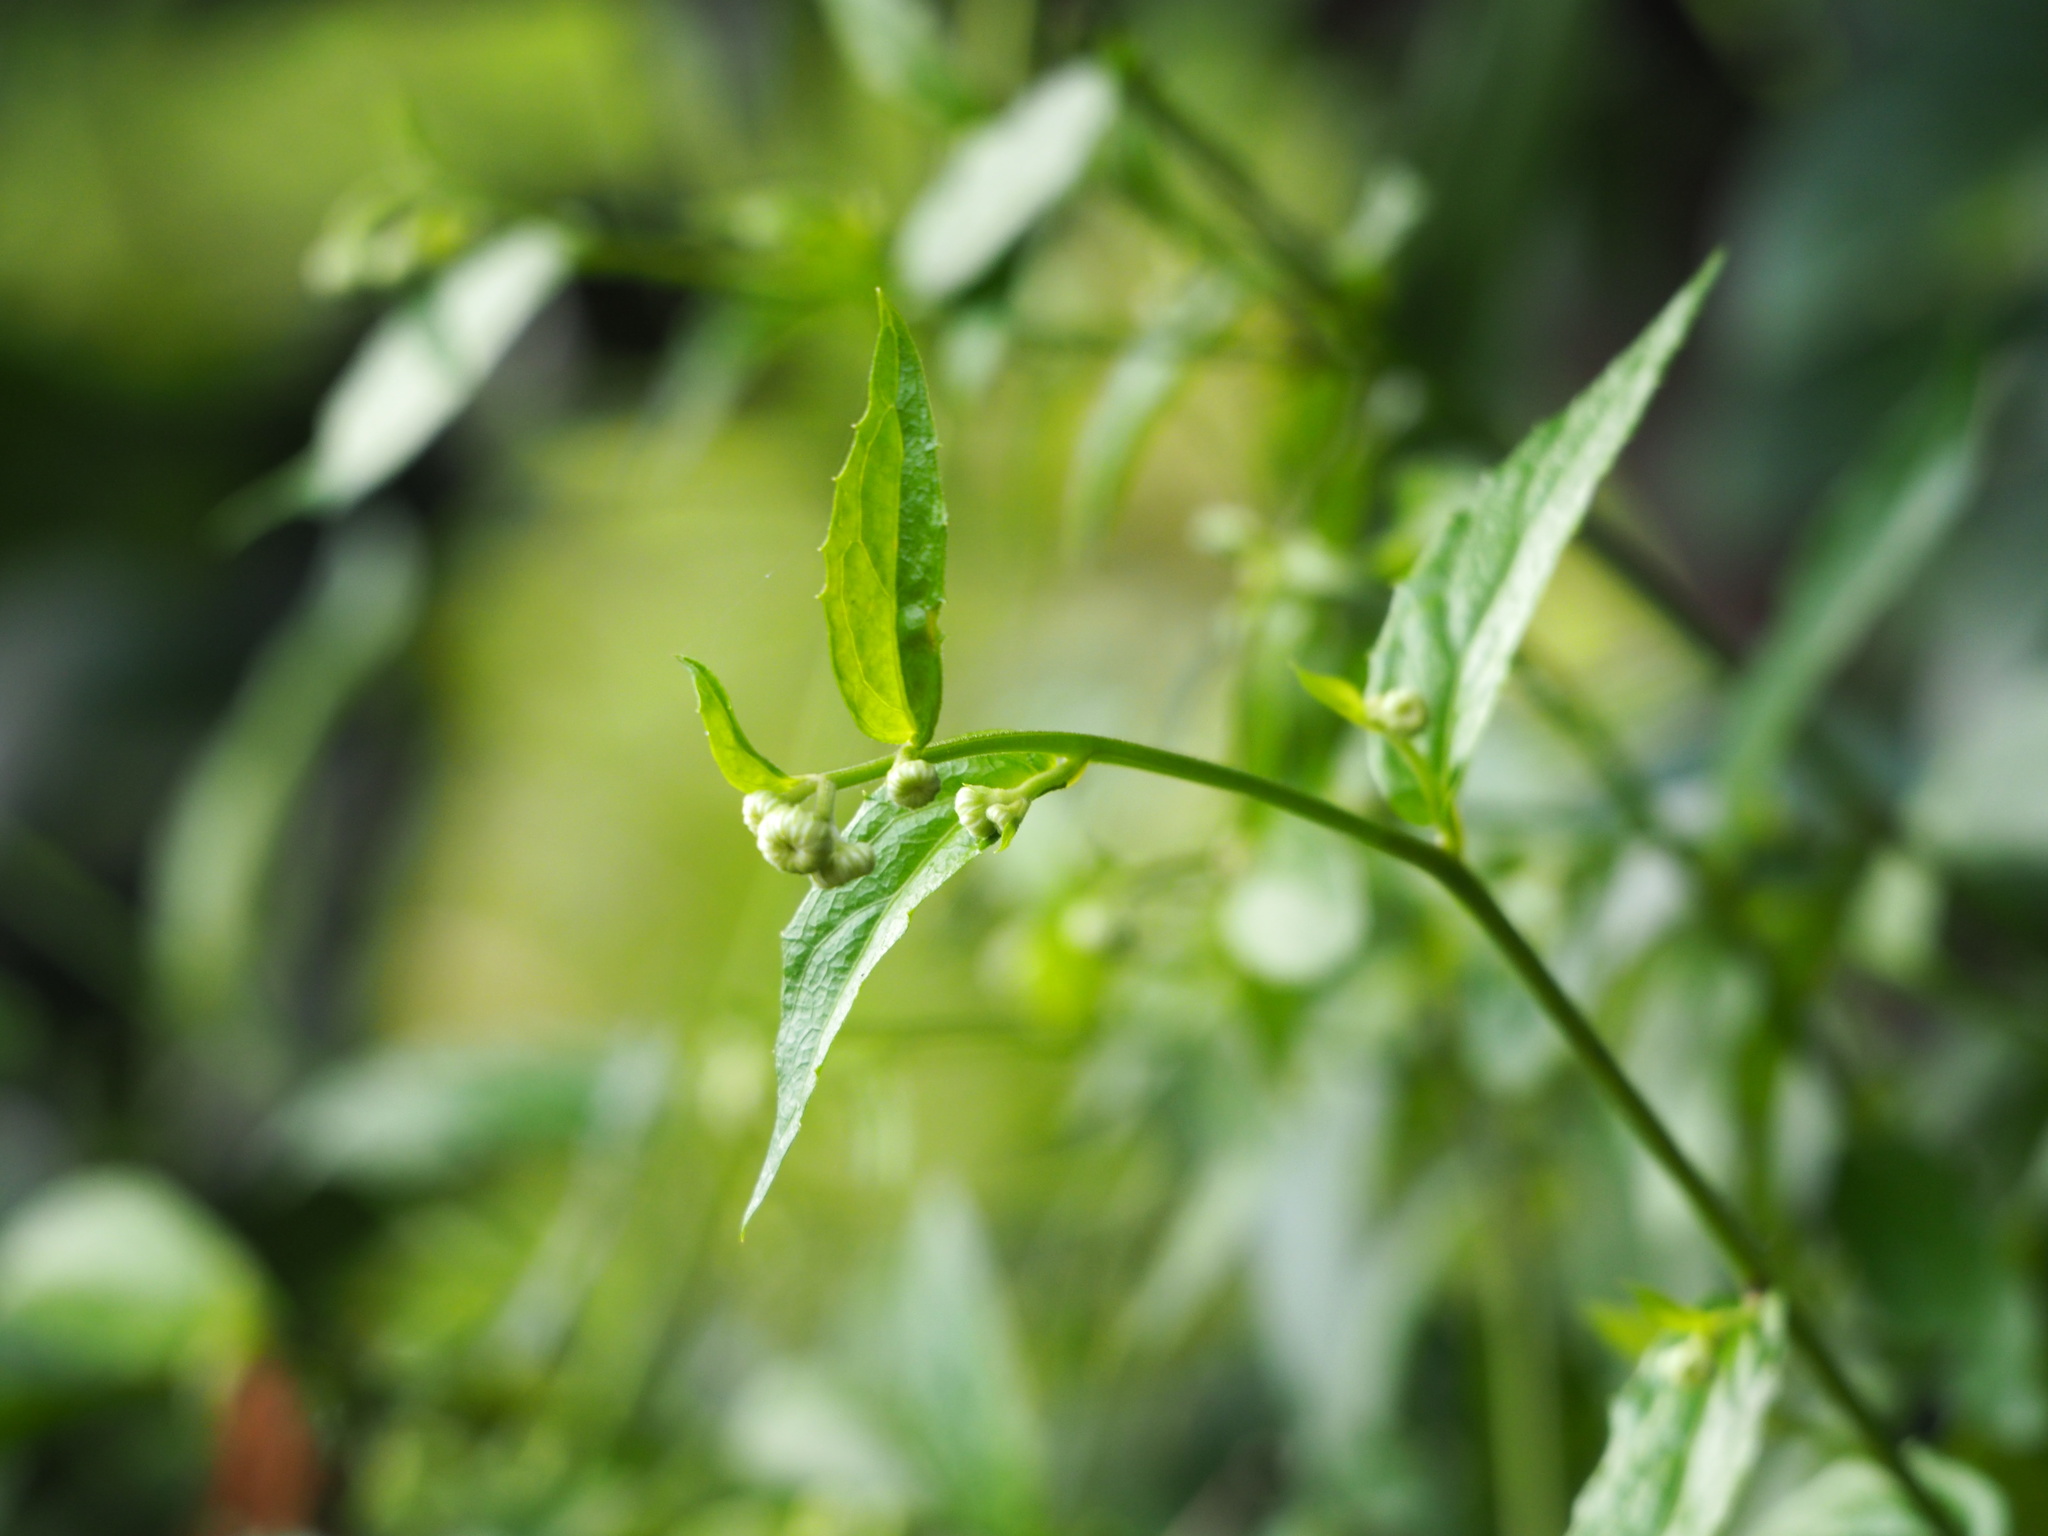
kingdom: Plantae
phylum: Tracheophyta
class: Magnoliopsida
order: Asterales
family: Asteraceae
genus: Blumea
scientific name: Blumea megacephala
